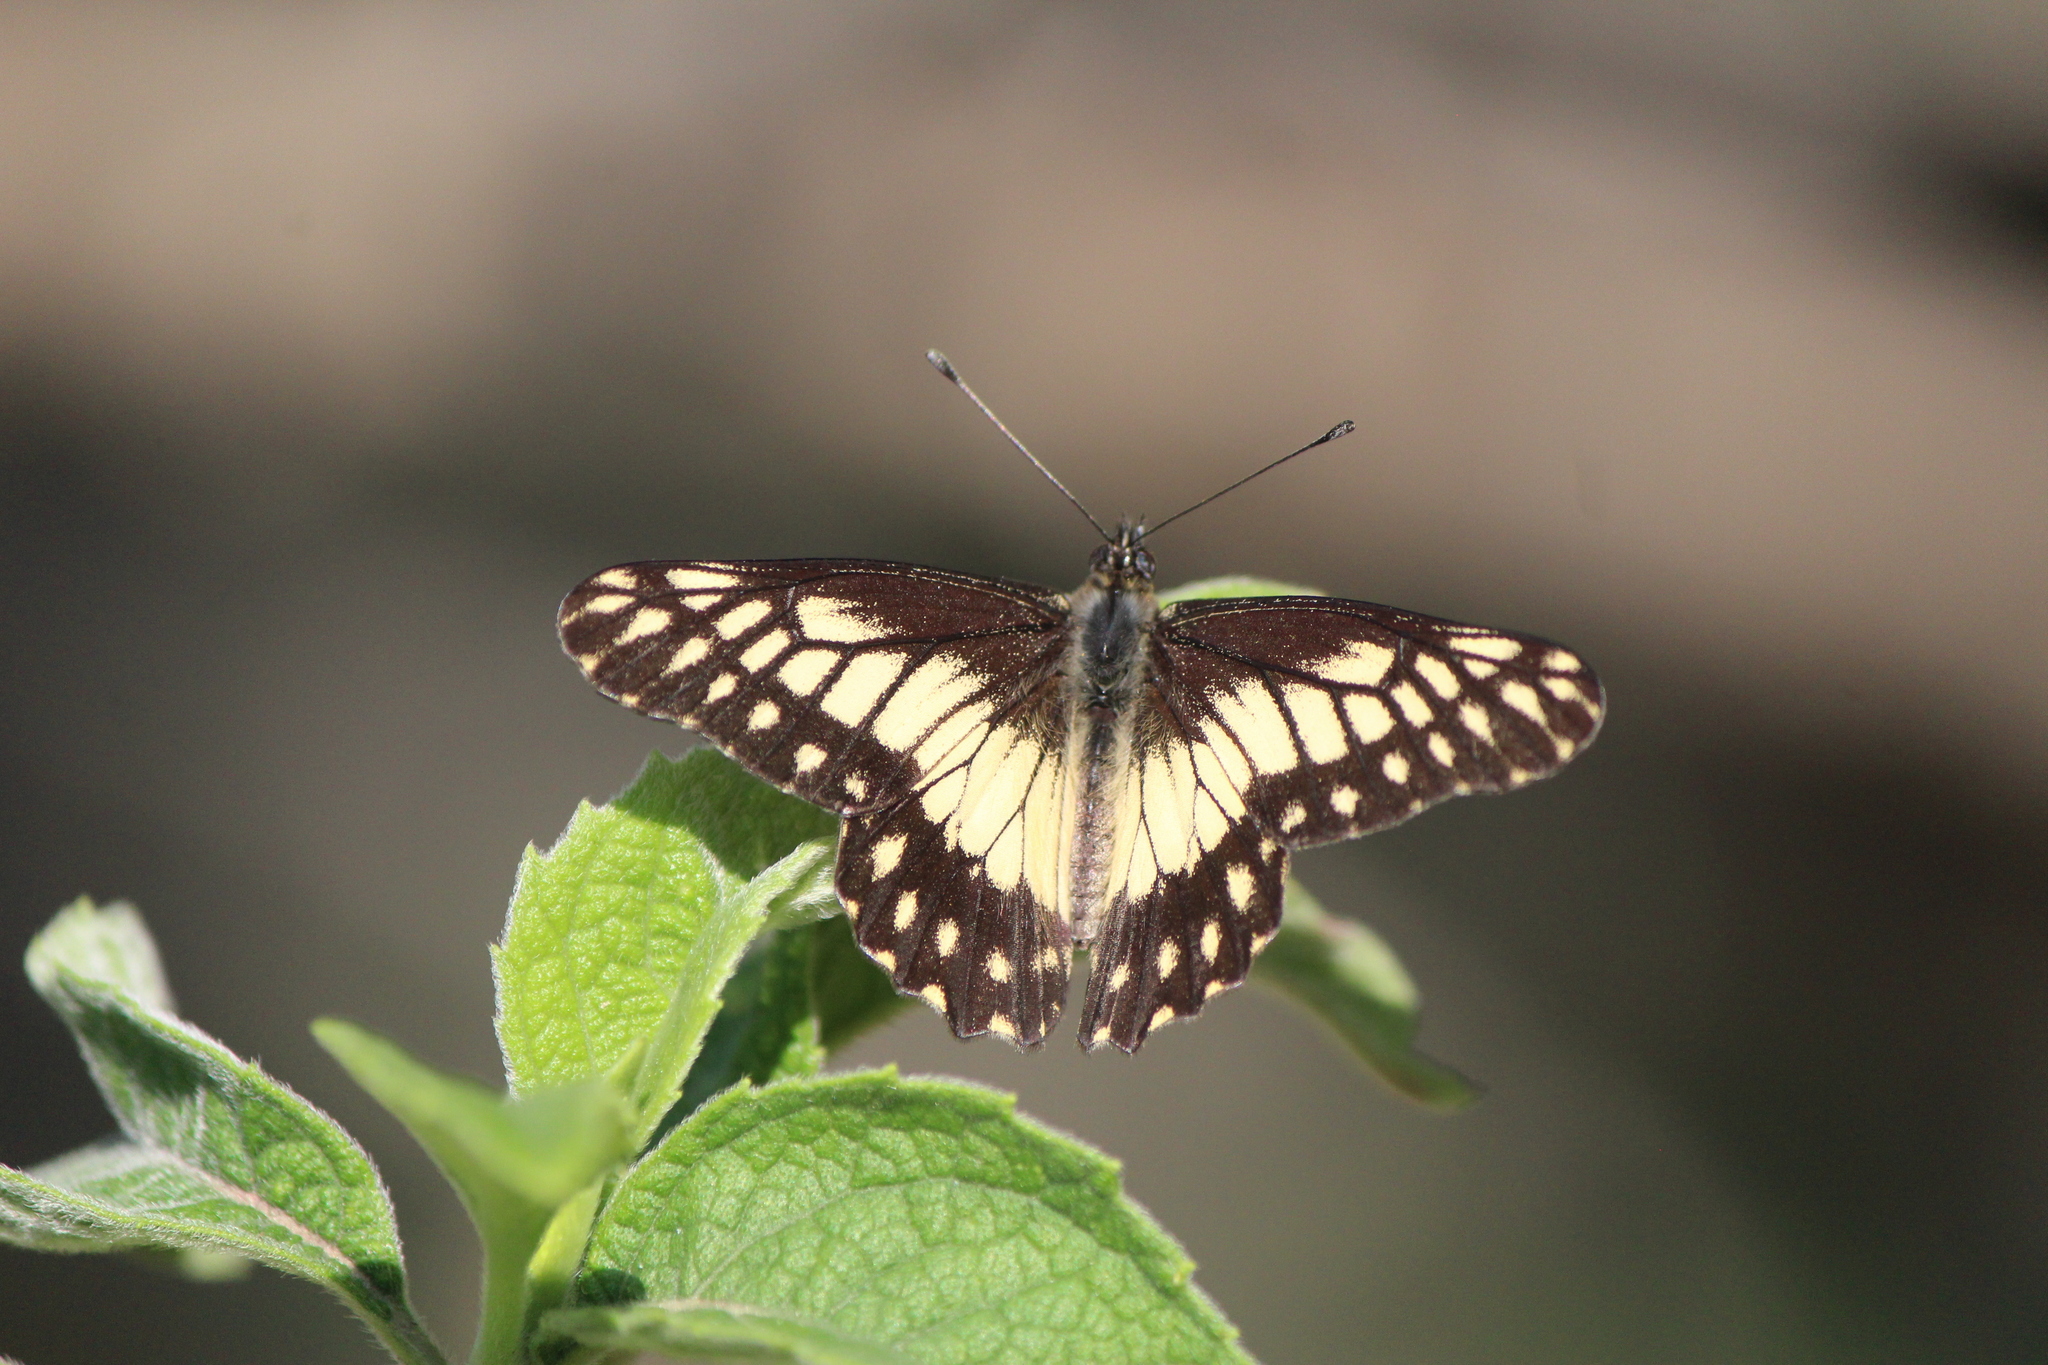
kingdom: Animalia
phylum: Arthropoda
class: Insecta
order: Lepidoptera
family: Pieridae
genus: Archonias
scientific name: Archonias nimbice
